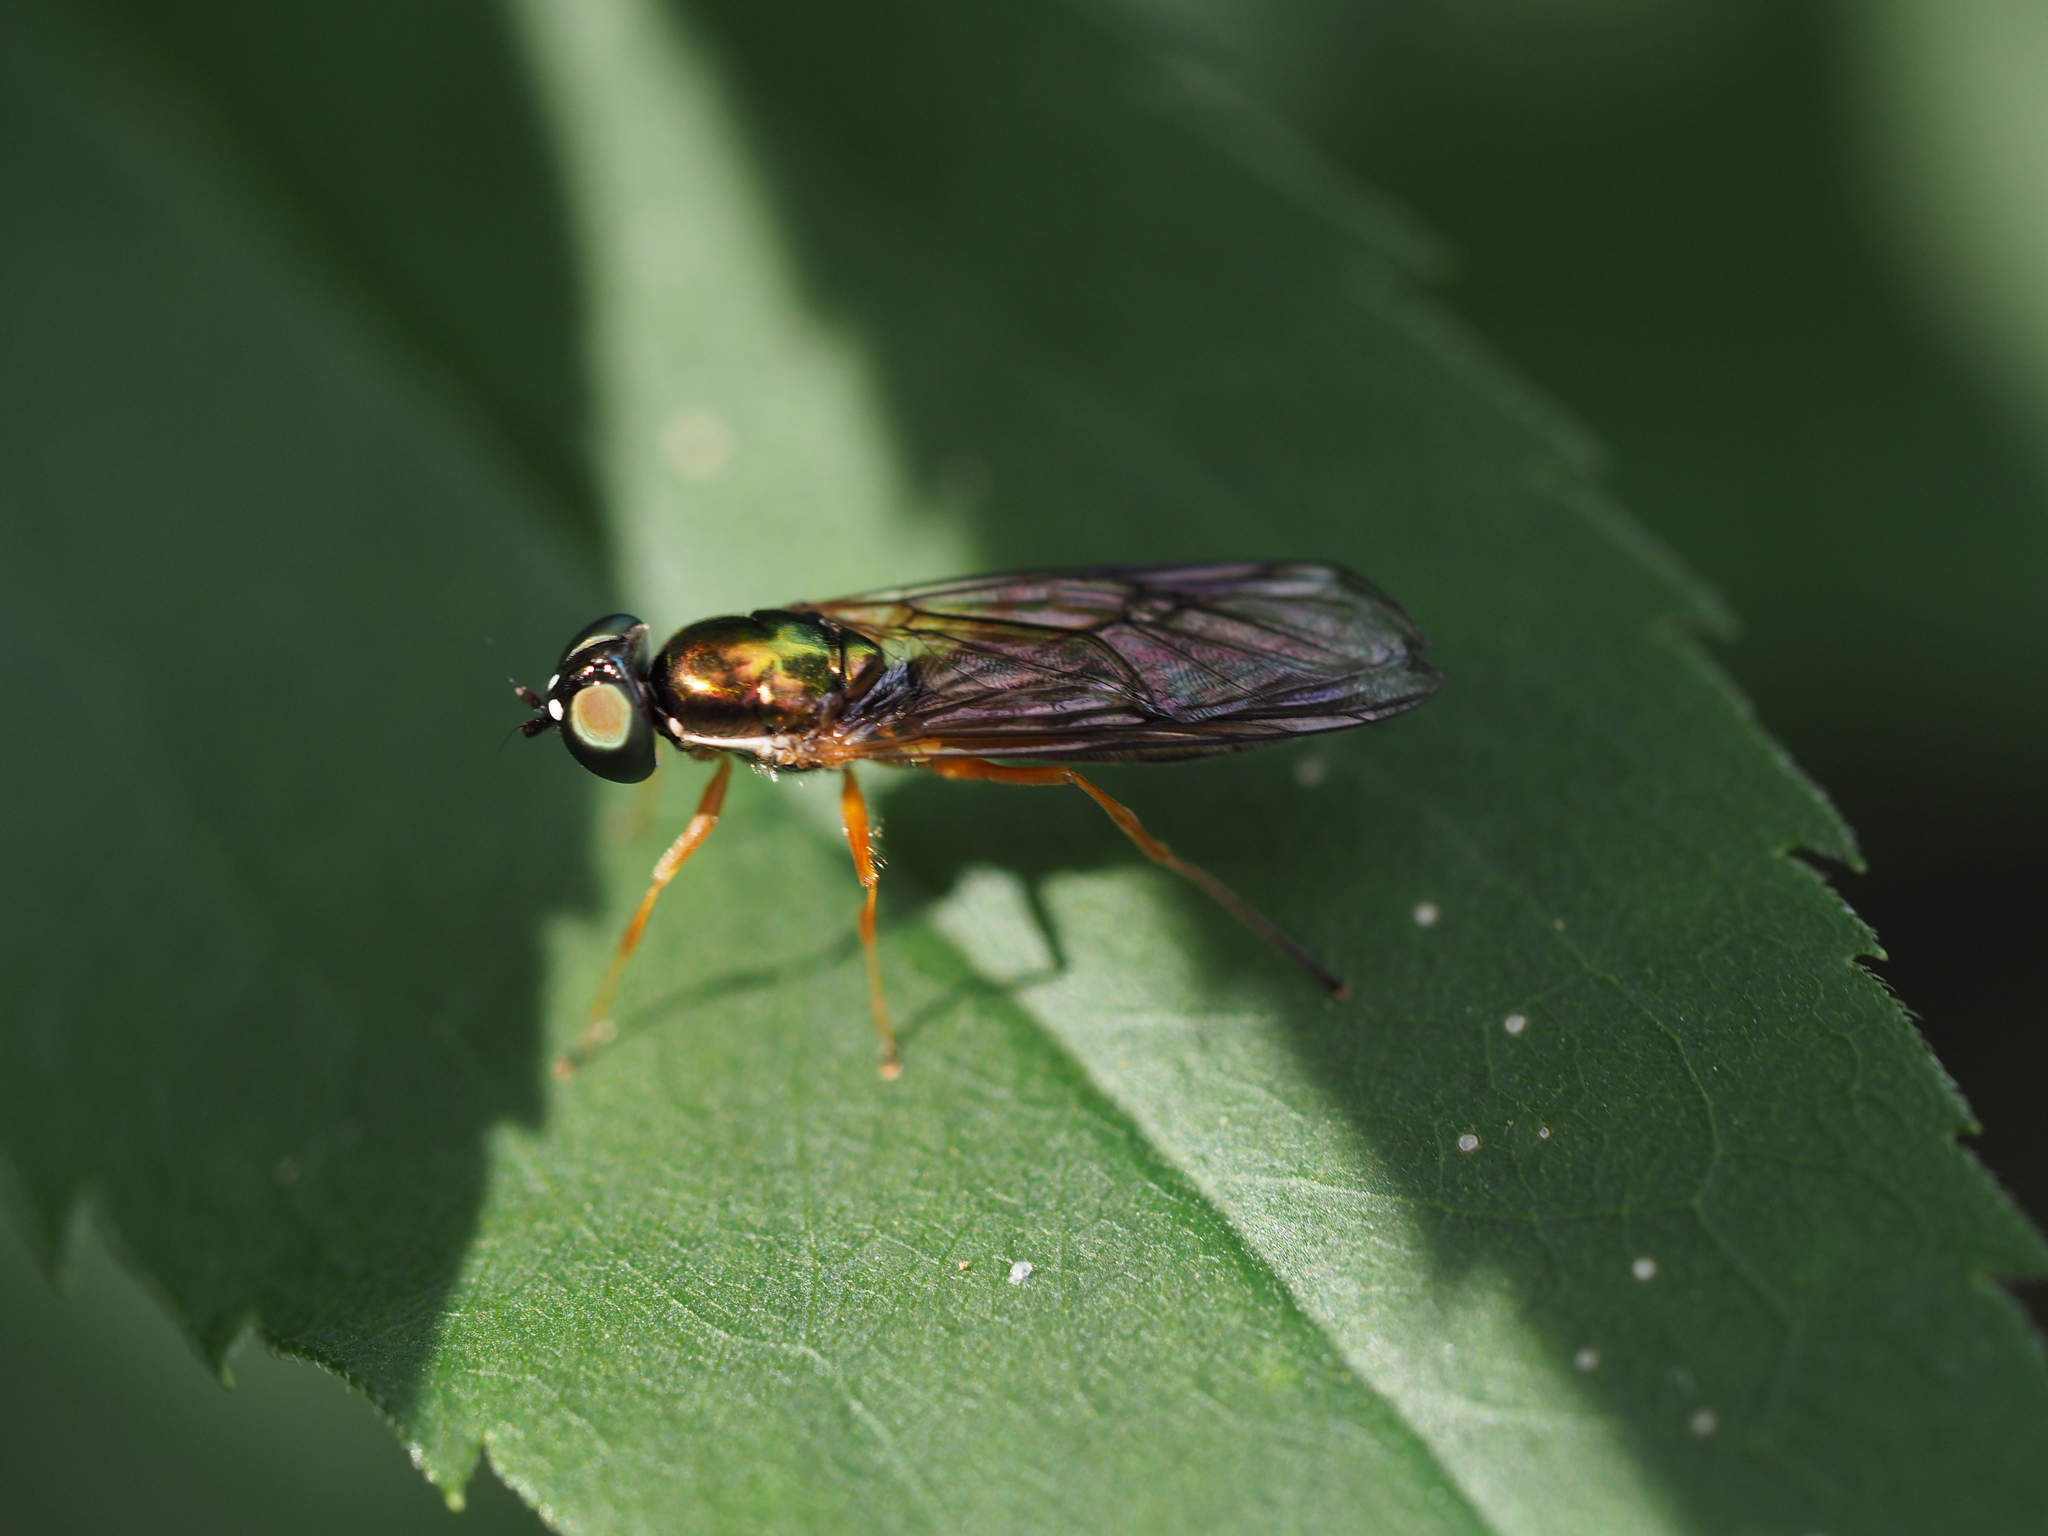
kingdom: Animalia
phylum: Arthropoda
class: Insecta
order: Diptera
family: Stratiomyidae
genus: Sargus
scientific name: Sargus bipunctatus
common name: Twin-spot centurion
